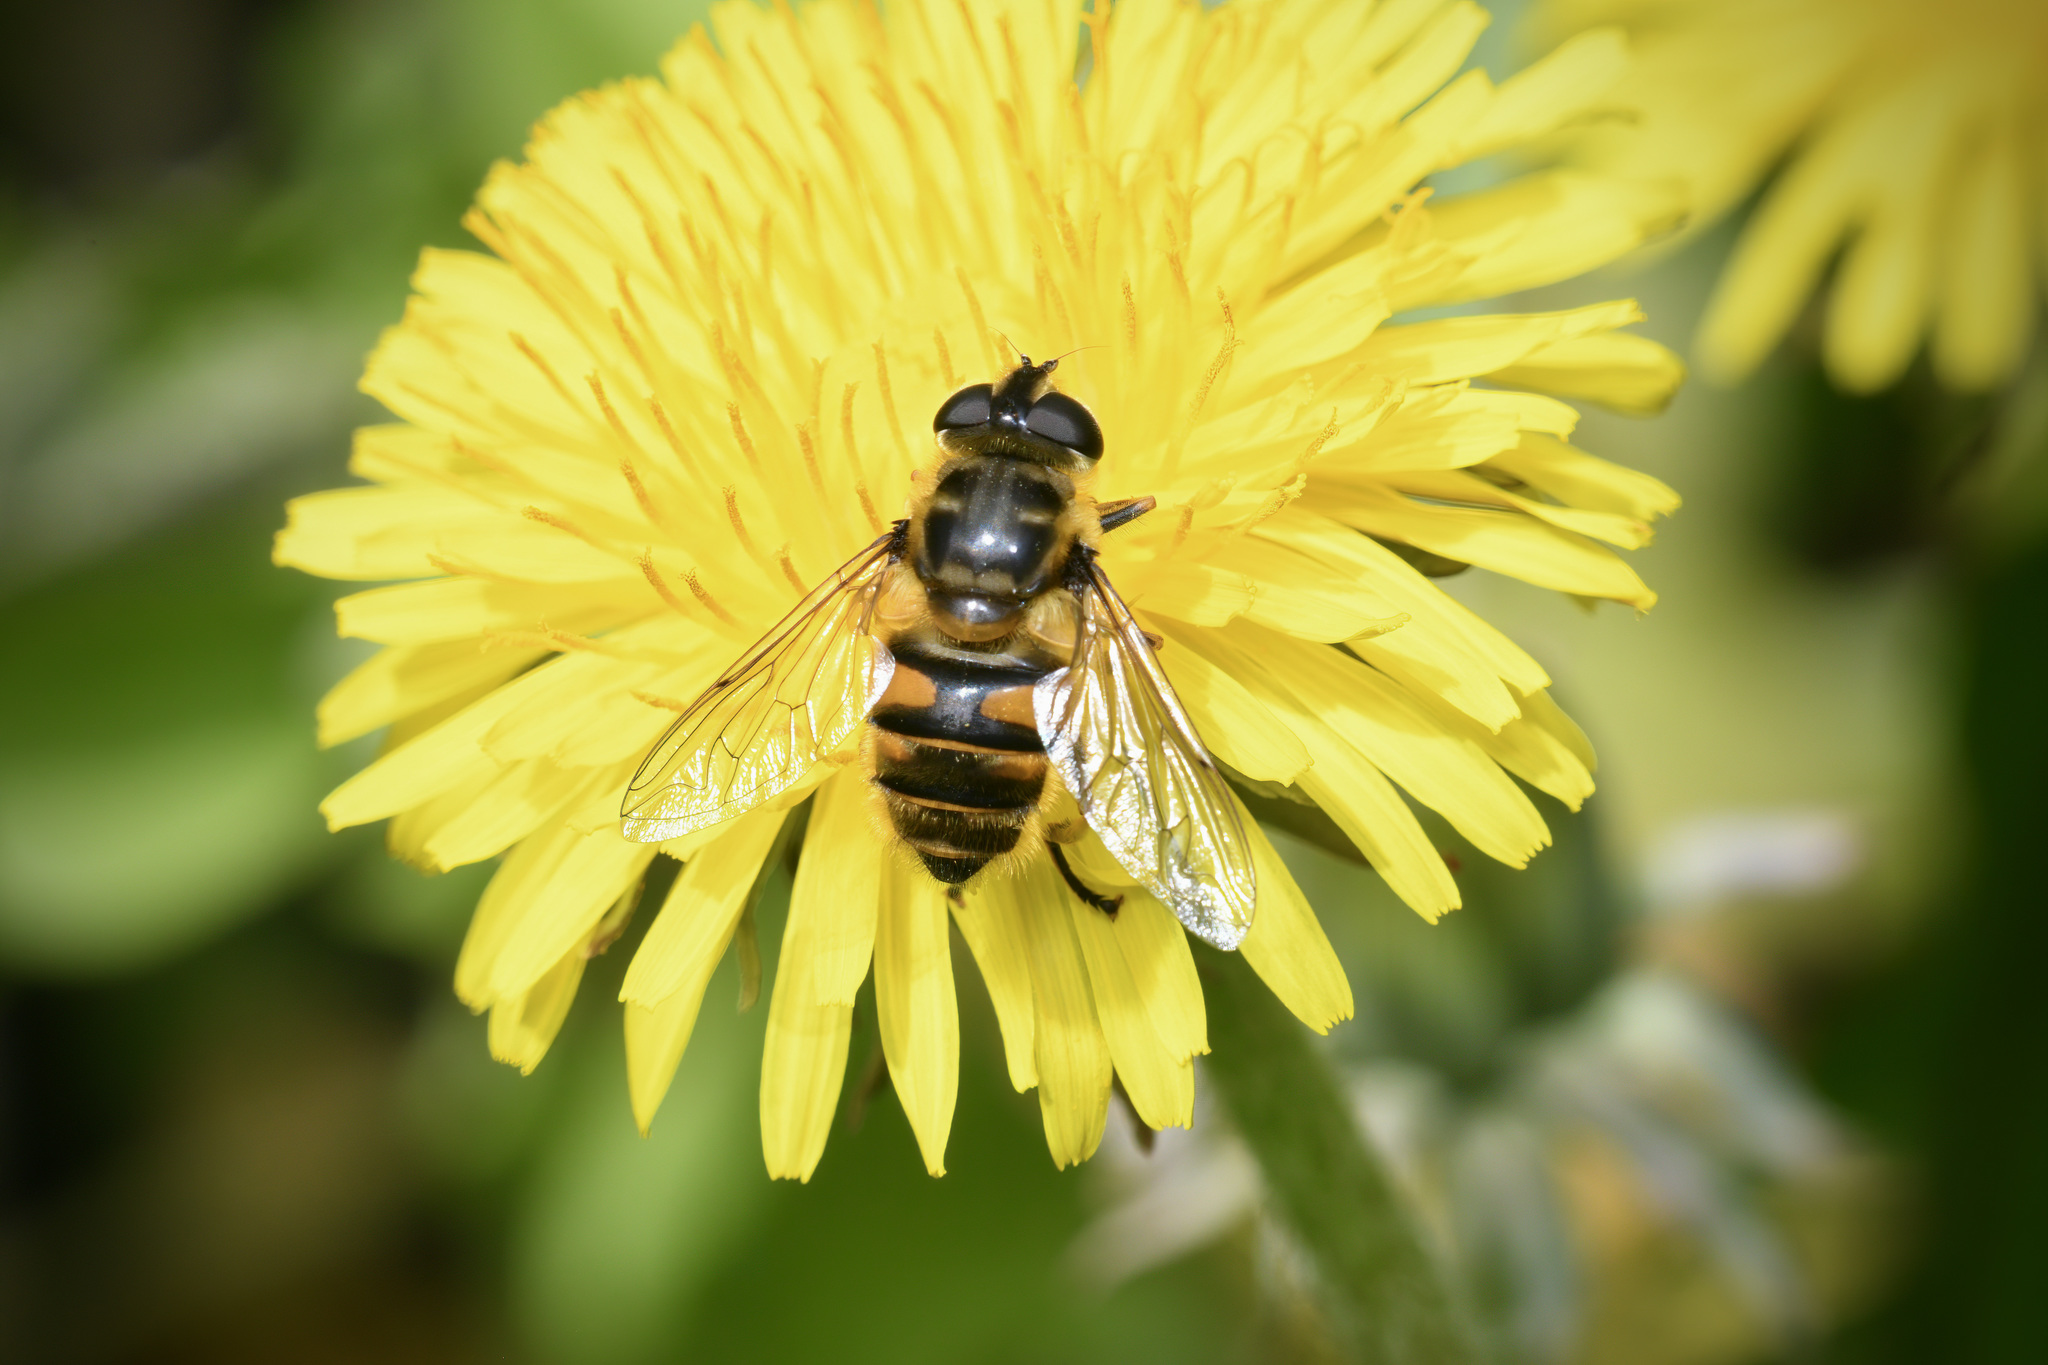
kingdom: Animalia
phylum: Arthropoda
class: Insecta
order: Diptera
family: Syrphidae
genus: Myathropa
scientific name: Myathropa florea
